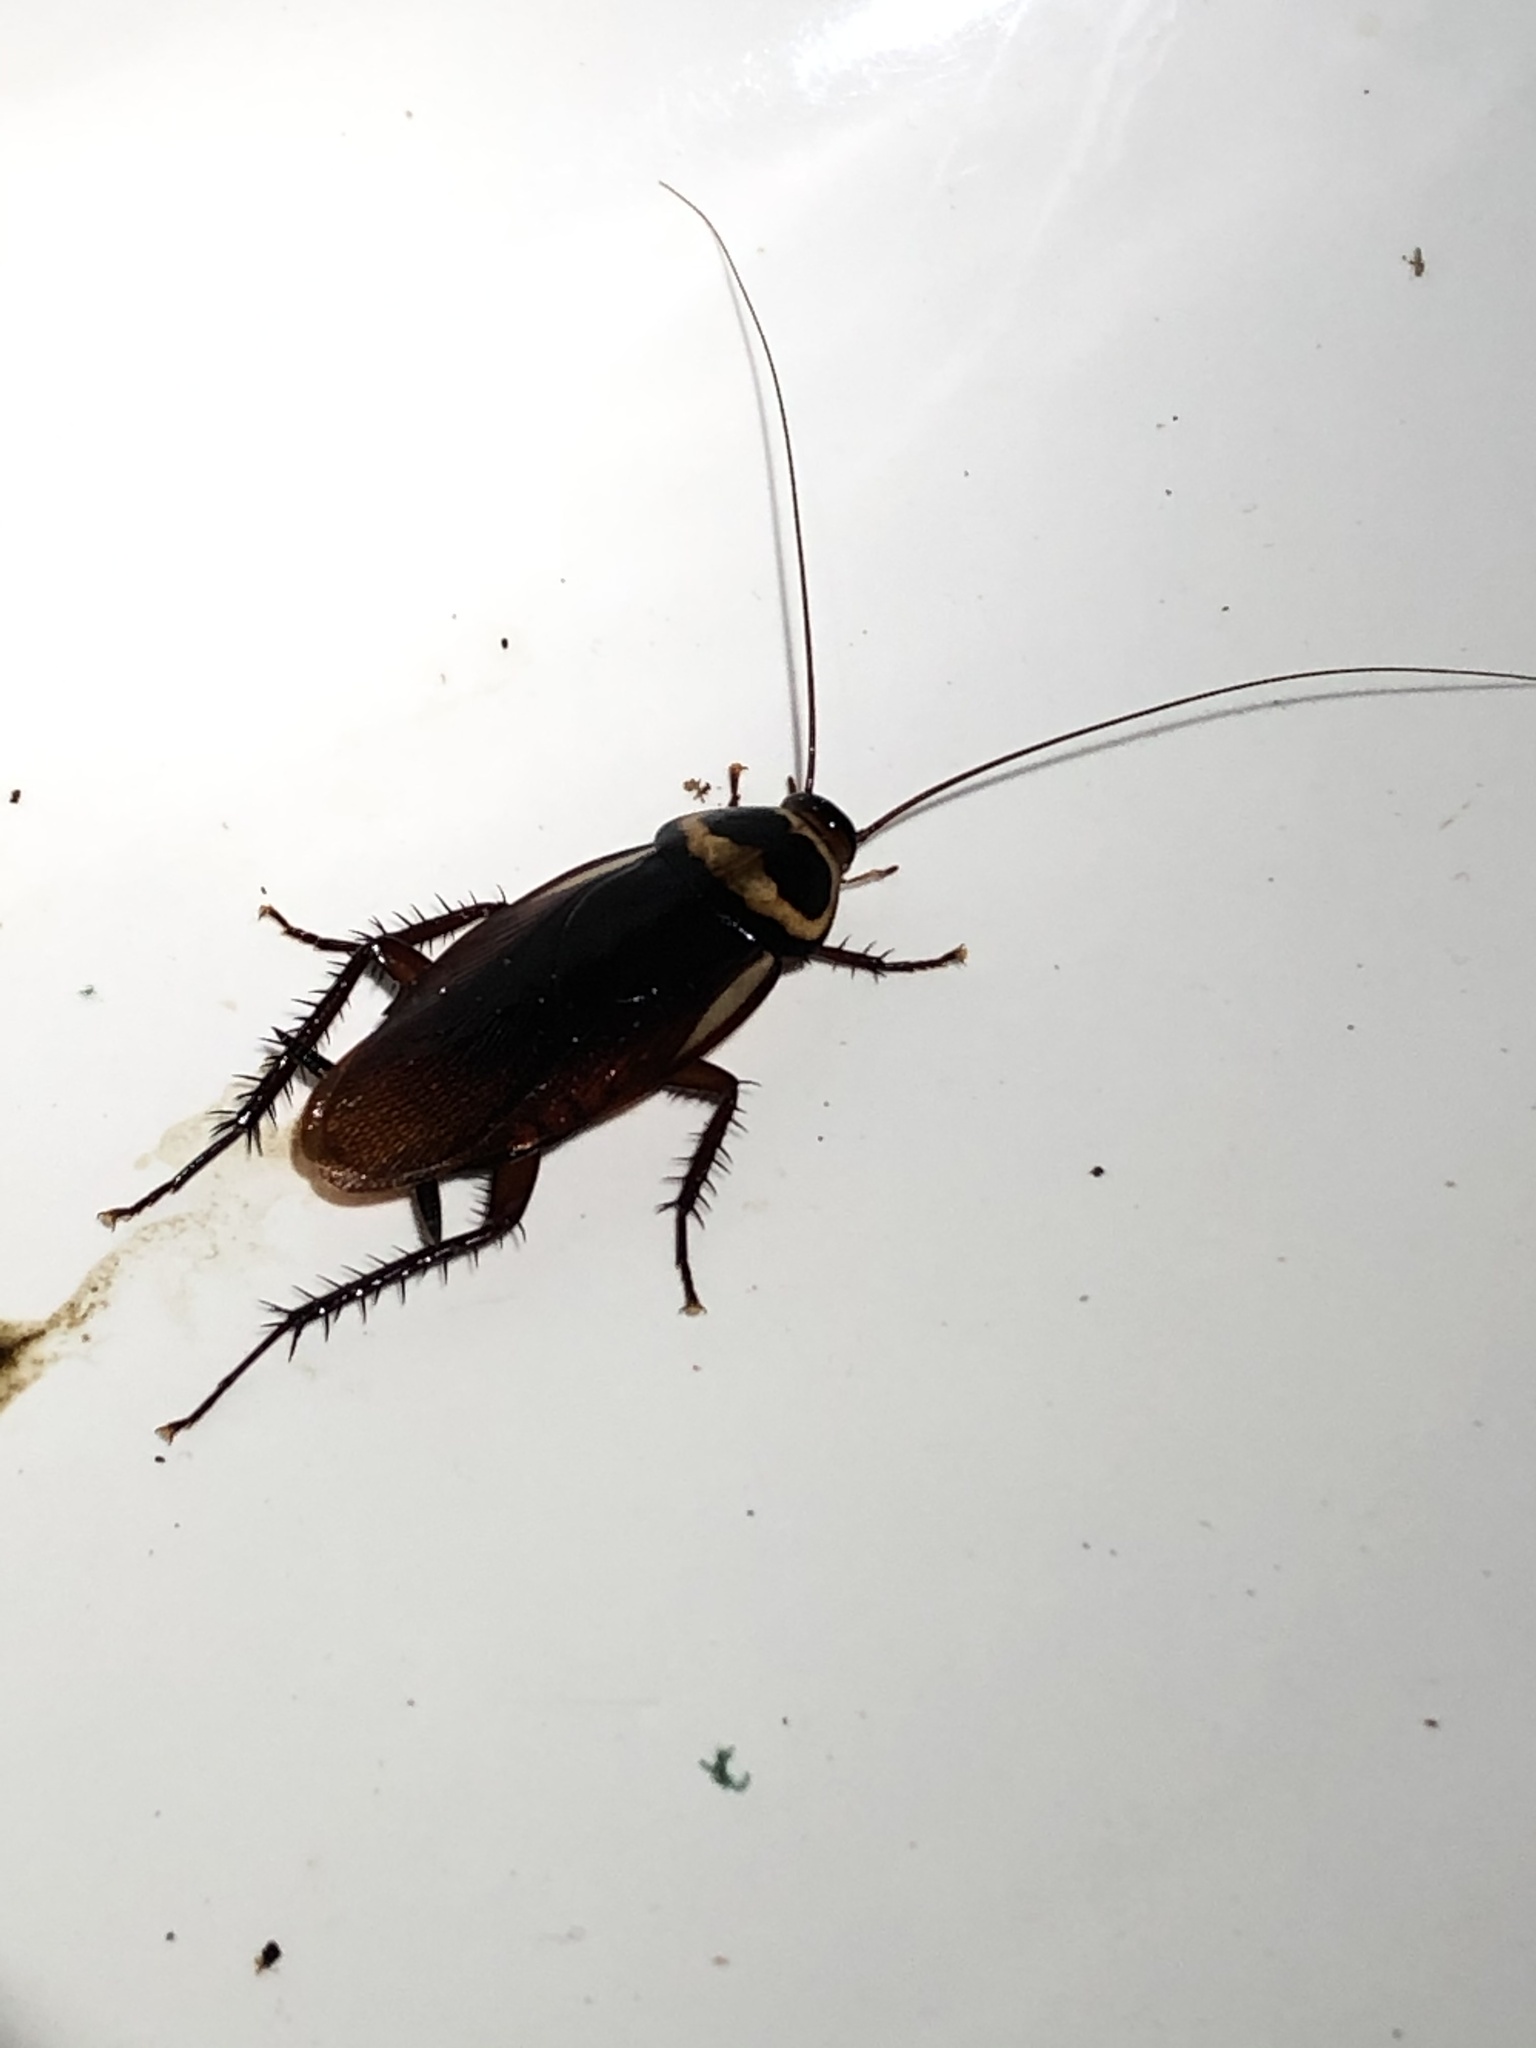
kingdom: Animalia
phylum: Arthropoda
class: Insecta
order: Blattodea
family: Blattidae
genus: Periplaneta
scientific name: Periplaneta australasiae
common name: Australian cockroach
